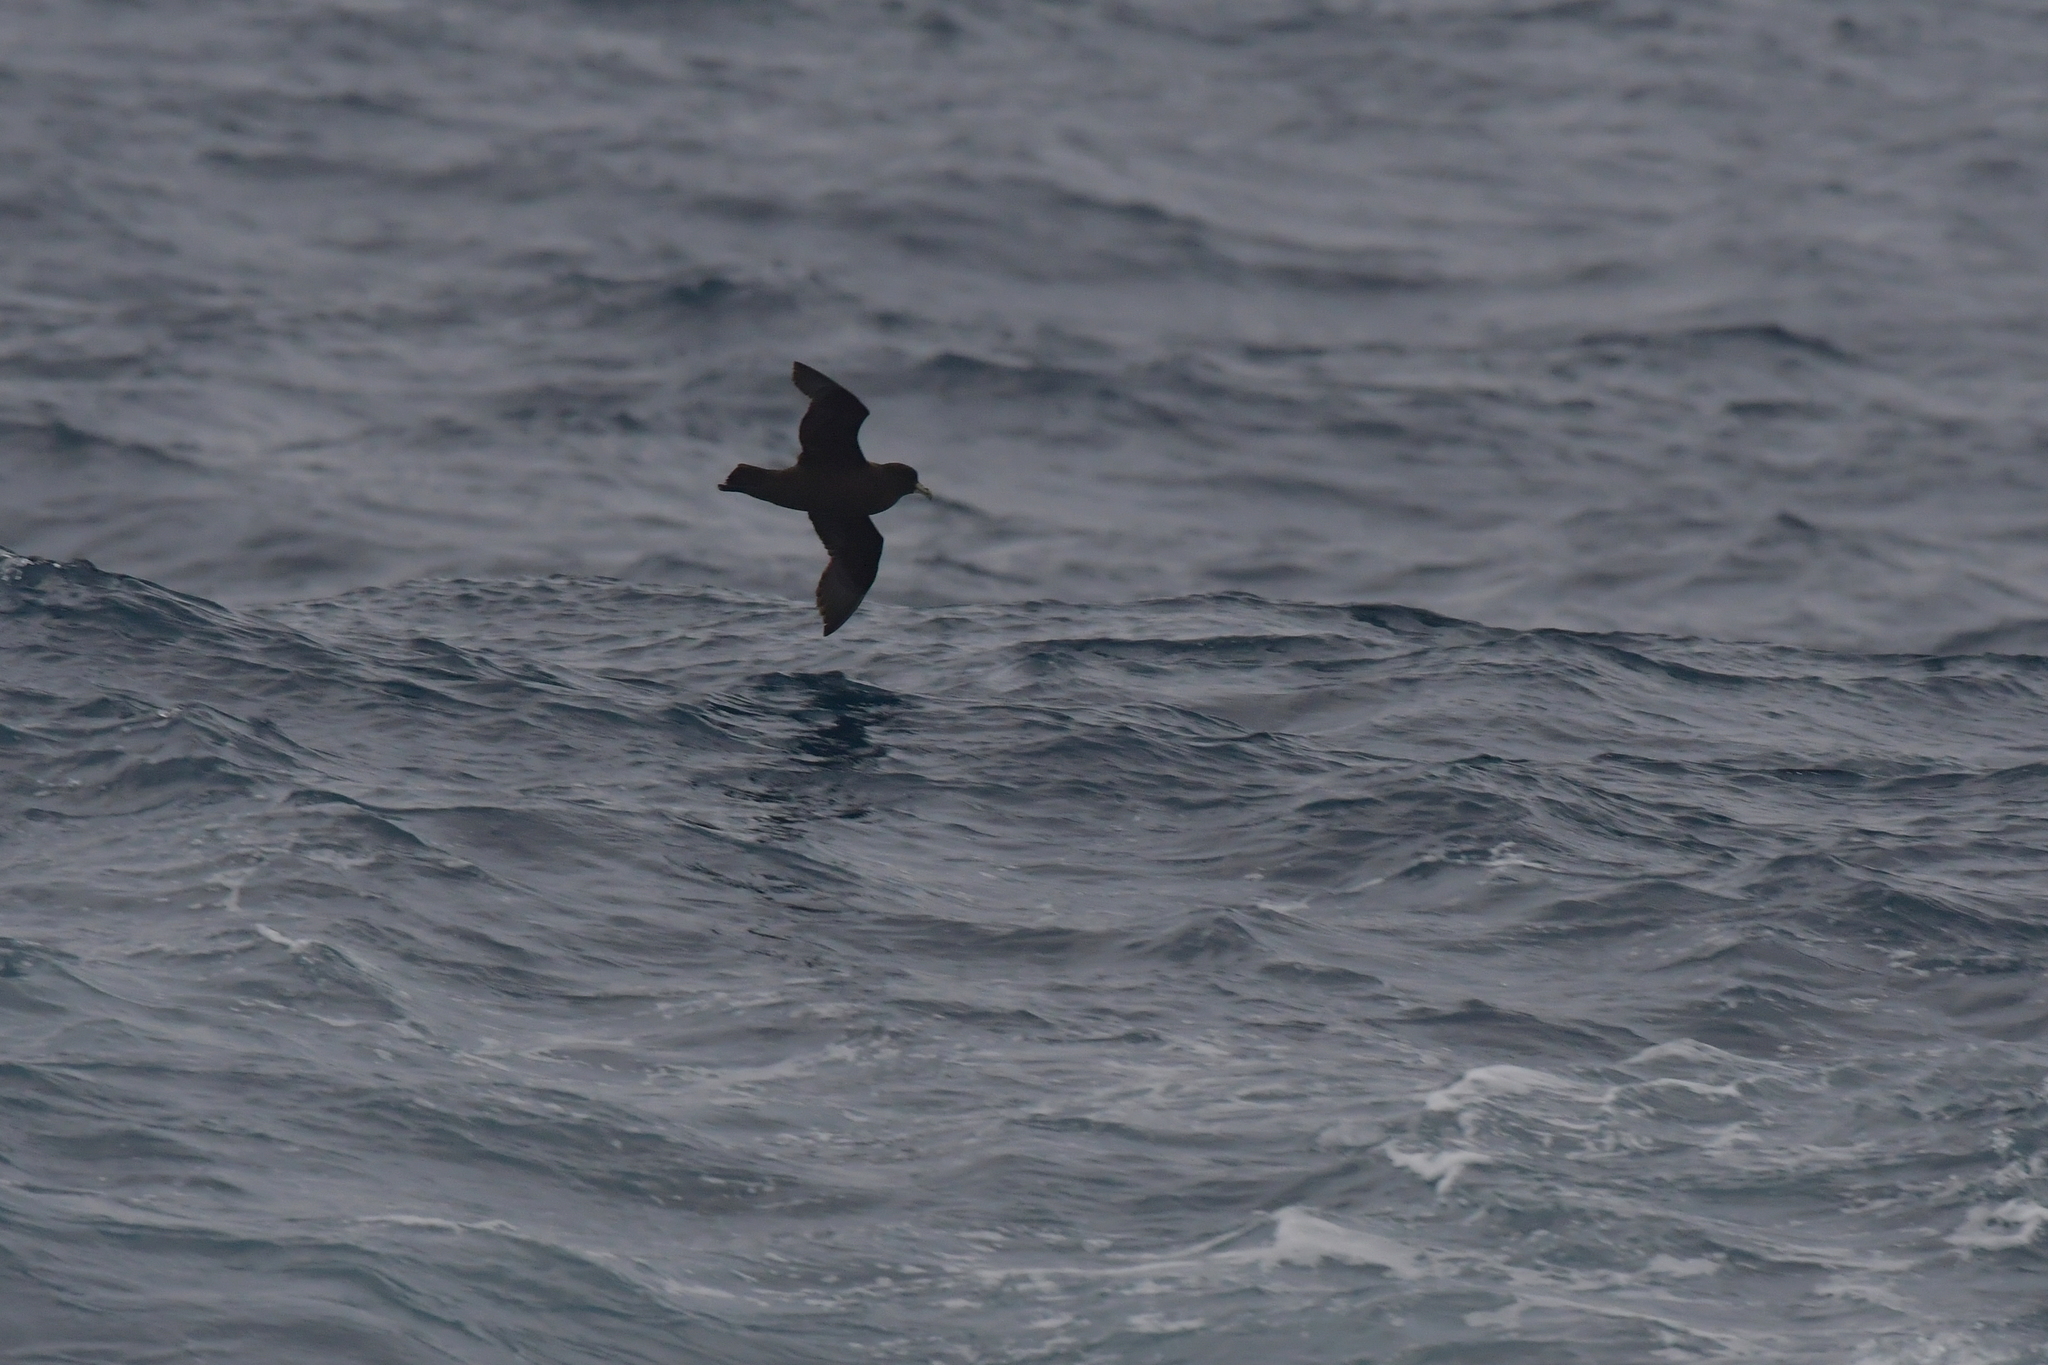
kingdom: Animalia
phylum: Chordata
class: Aves
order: Procellariiformes
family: Procellariidae
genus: Procellaria
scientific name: Procellaria aequinoctialis
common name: White-chinned petrel
